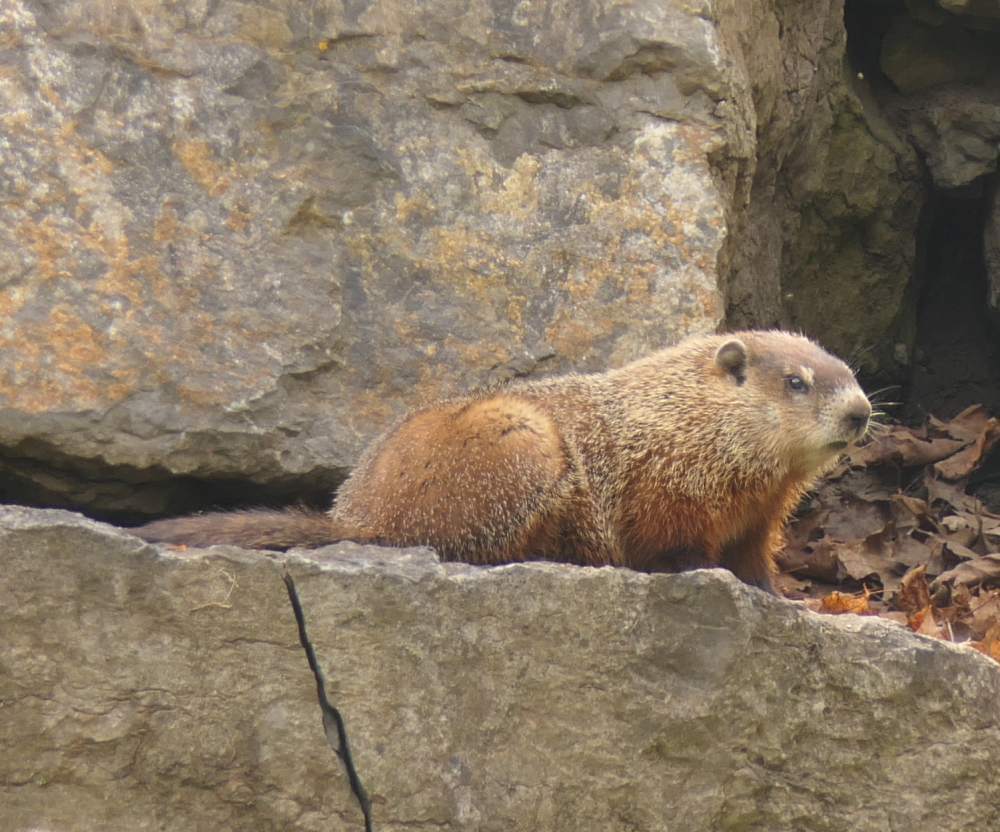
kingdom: Animalia
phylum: Chordata
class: Mammalia
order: Rodentia
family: Sciuridae
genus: Marmota
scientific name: Marmota monax
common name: Groundhog
